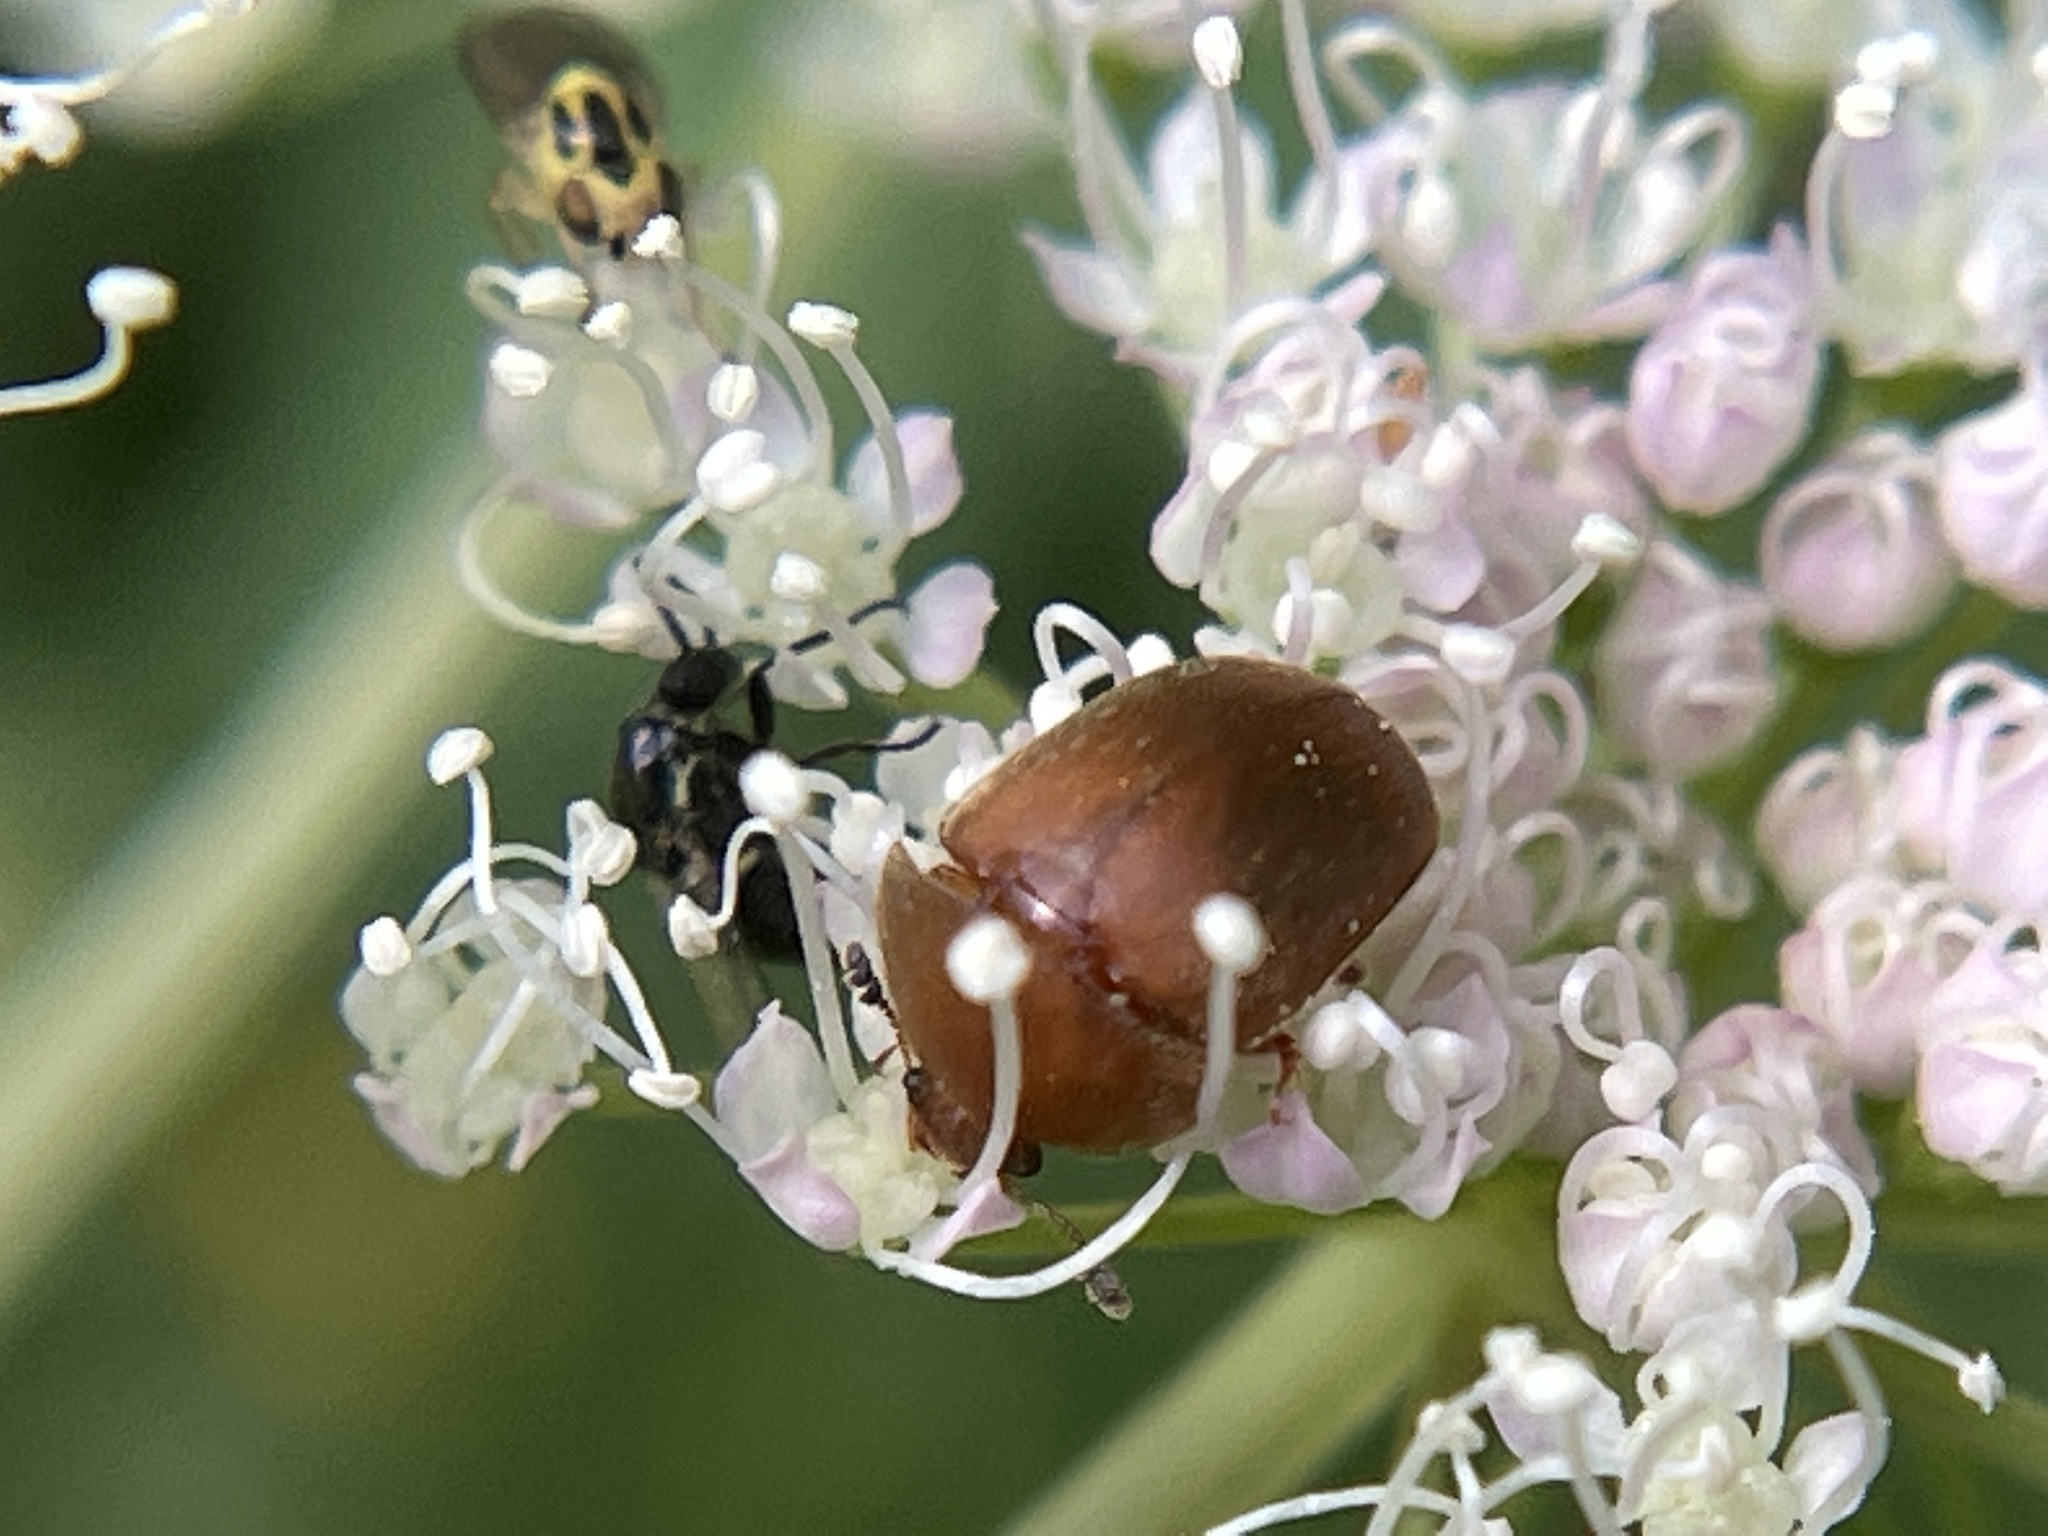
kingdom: Animalia
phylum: Arthropoda
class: Insecta
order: Coleoptera
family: Nitidulidae
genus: Cychramus
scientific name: Cychramus luteus
